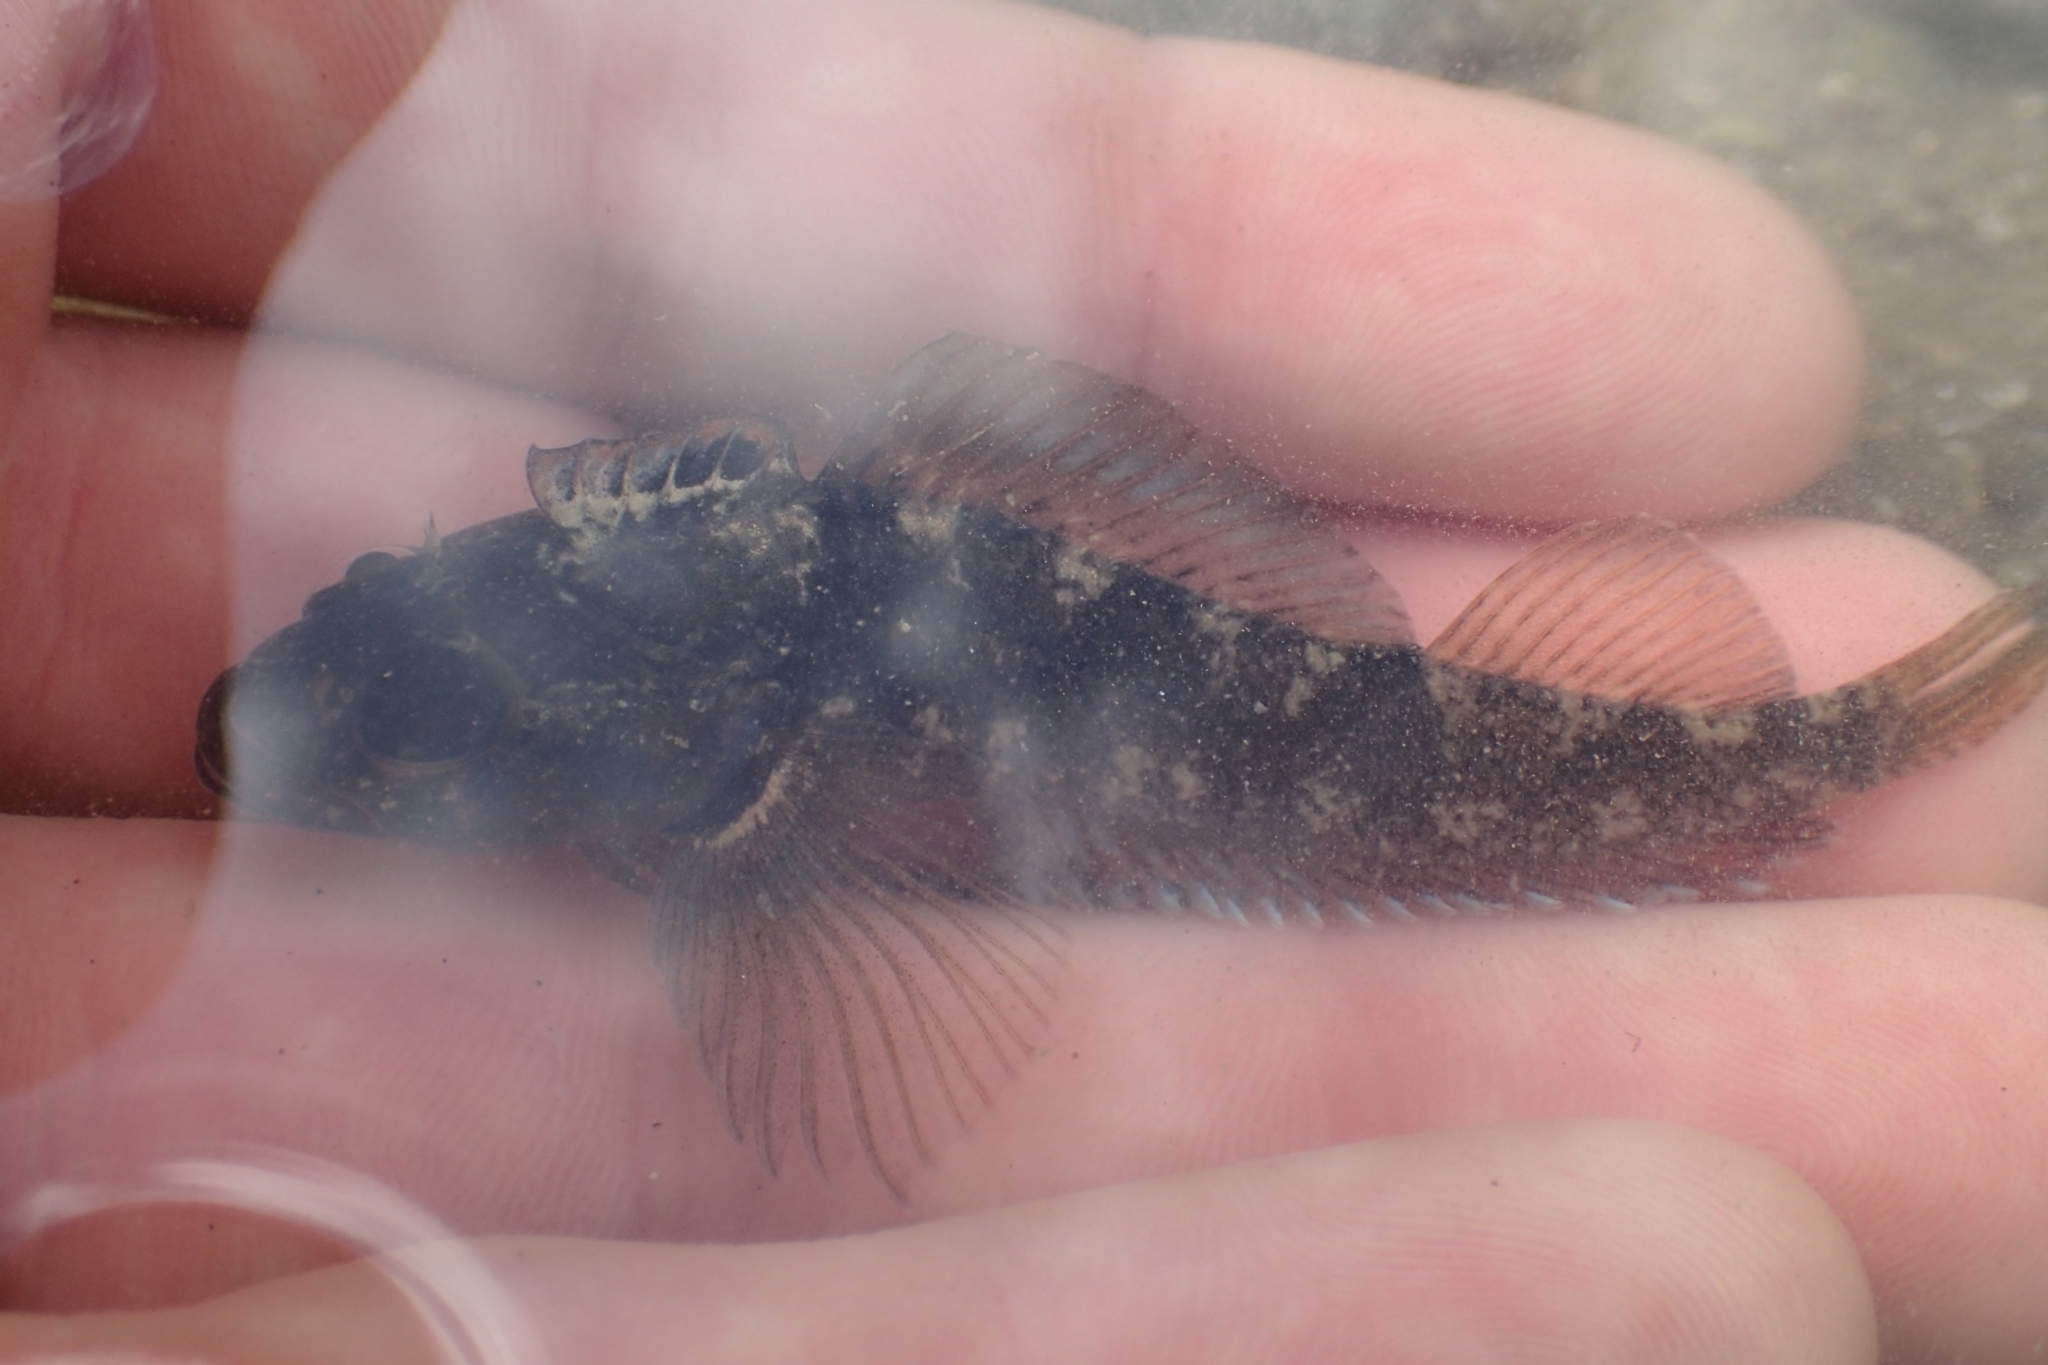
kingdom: Animalia
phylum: Chordata
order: Perciformes
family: Tripterygiidae
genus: Forsterygion
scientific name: Forsterygion capito
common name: Spotted robust triplefin
